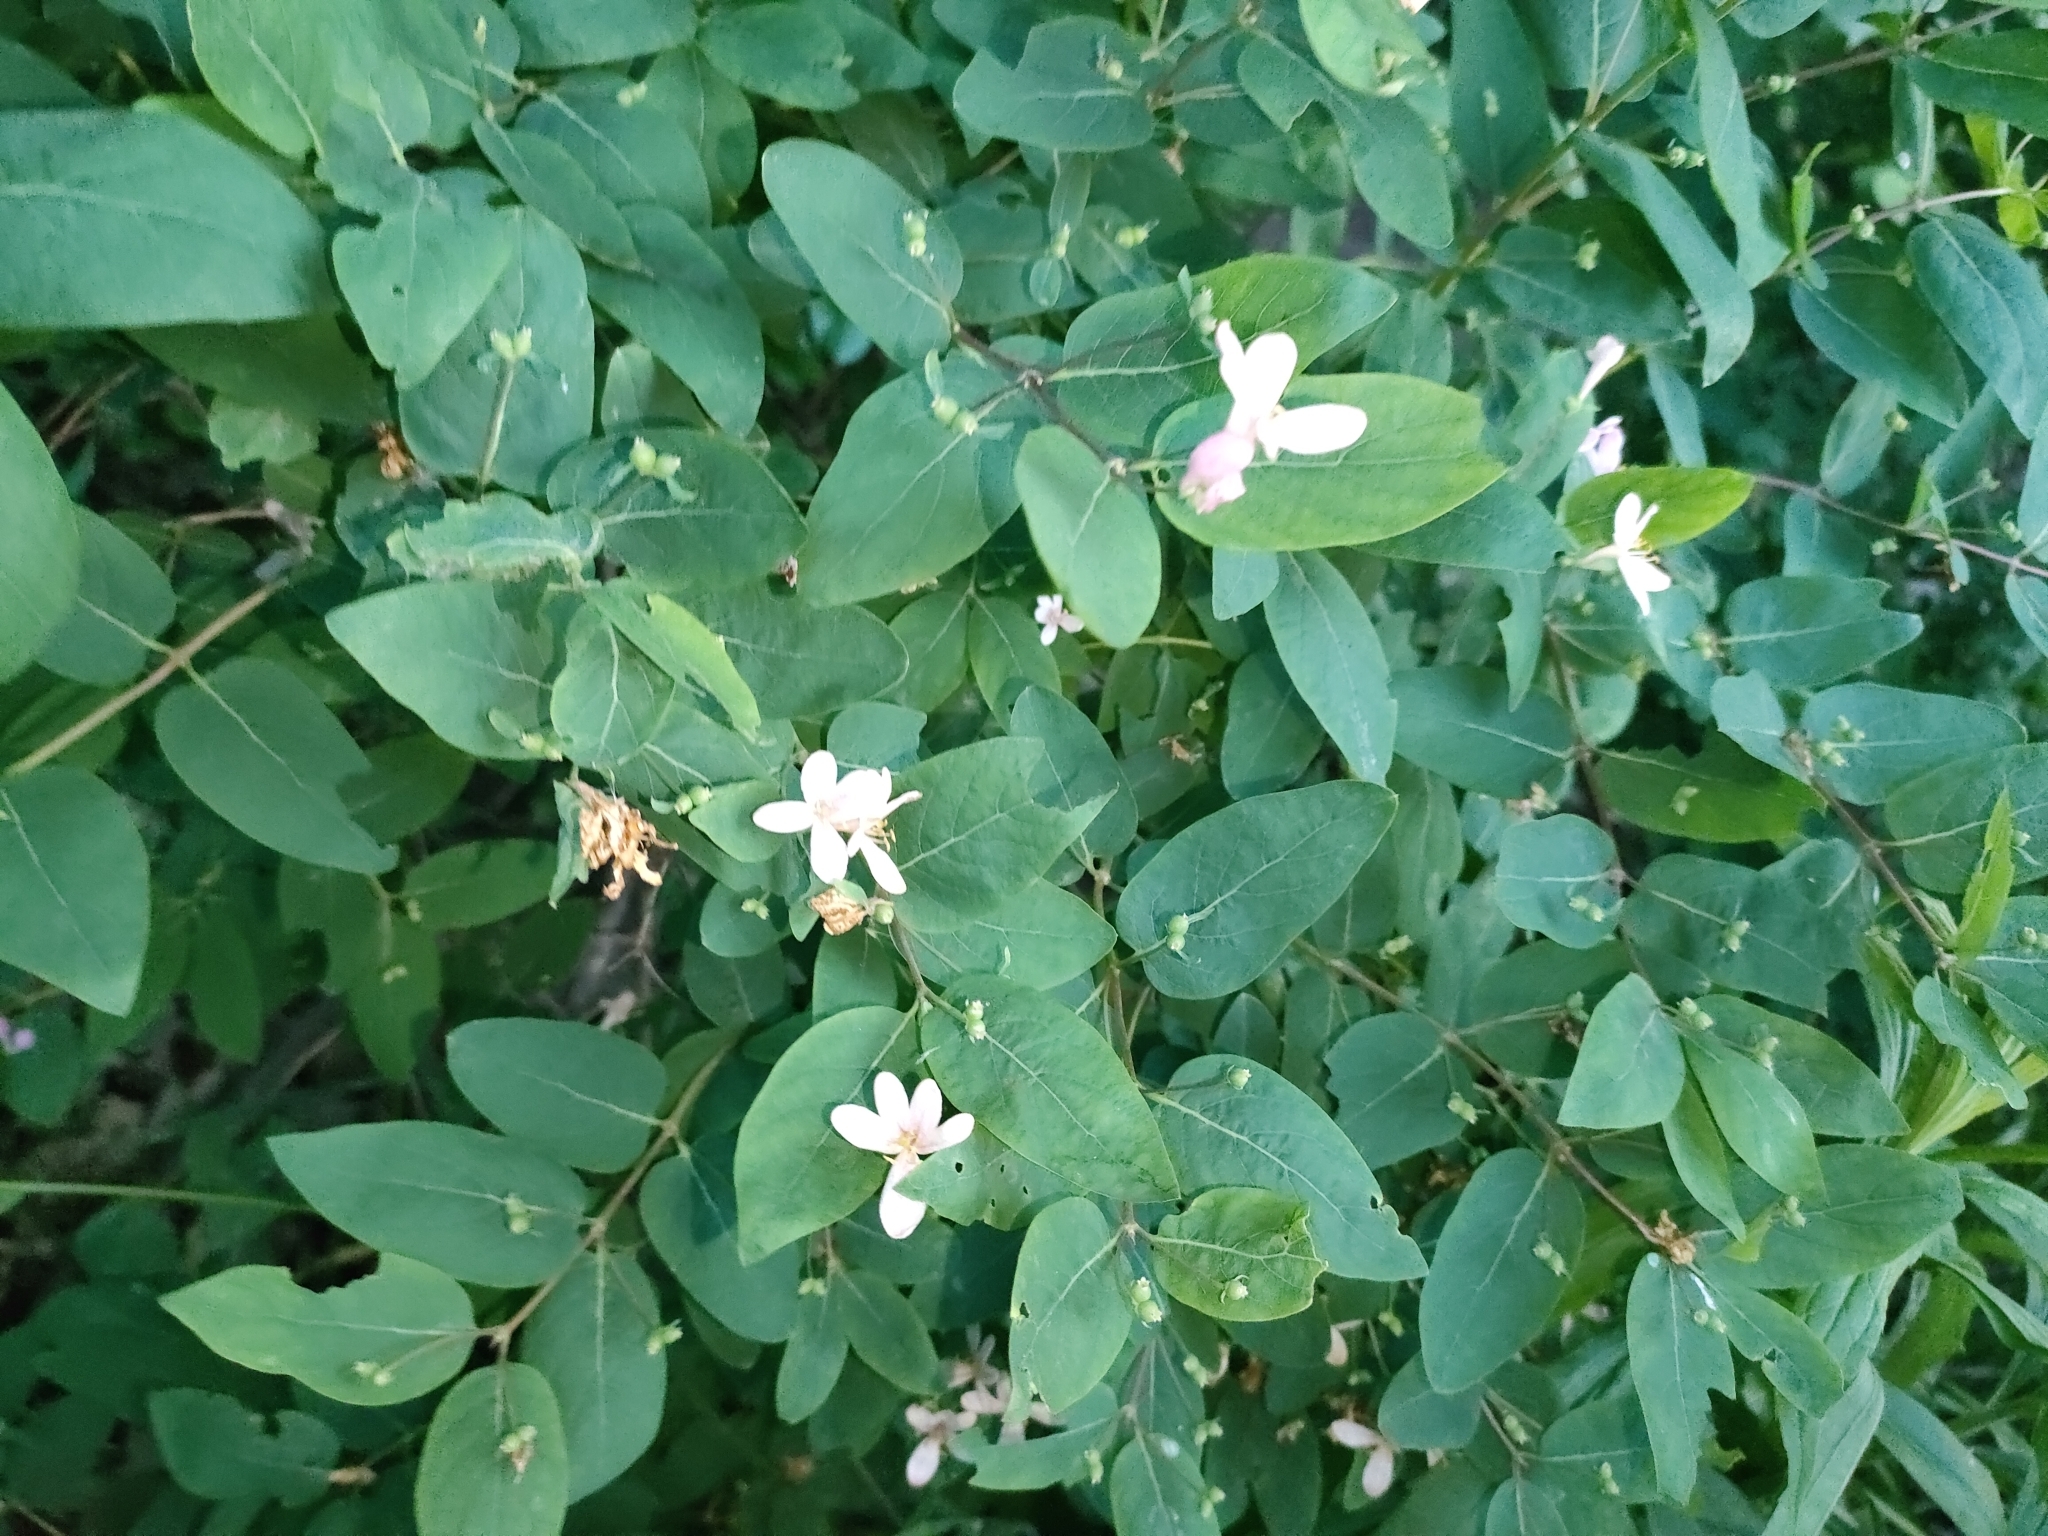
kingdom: Plantae
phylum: Tracheophyta
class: Magnoliopsida
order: Dipsacales
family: Caprifoliaceae
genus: Lonicera
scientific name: Lonicera tatarica
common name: Tatarian honeysuckle
